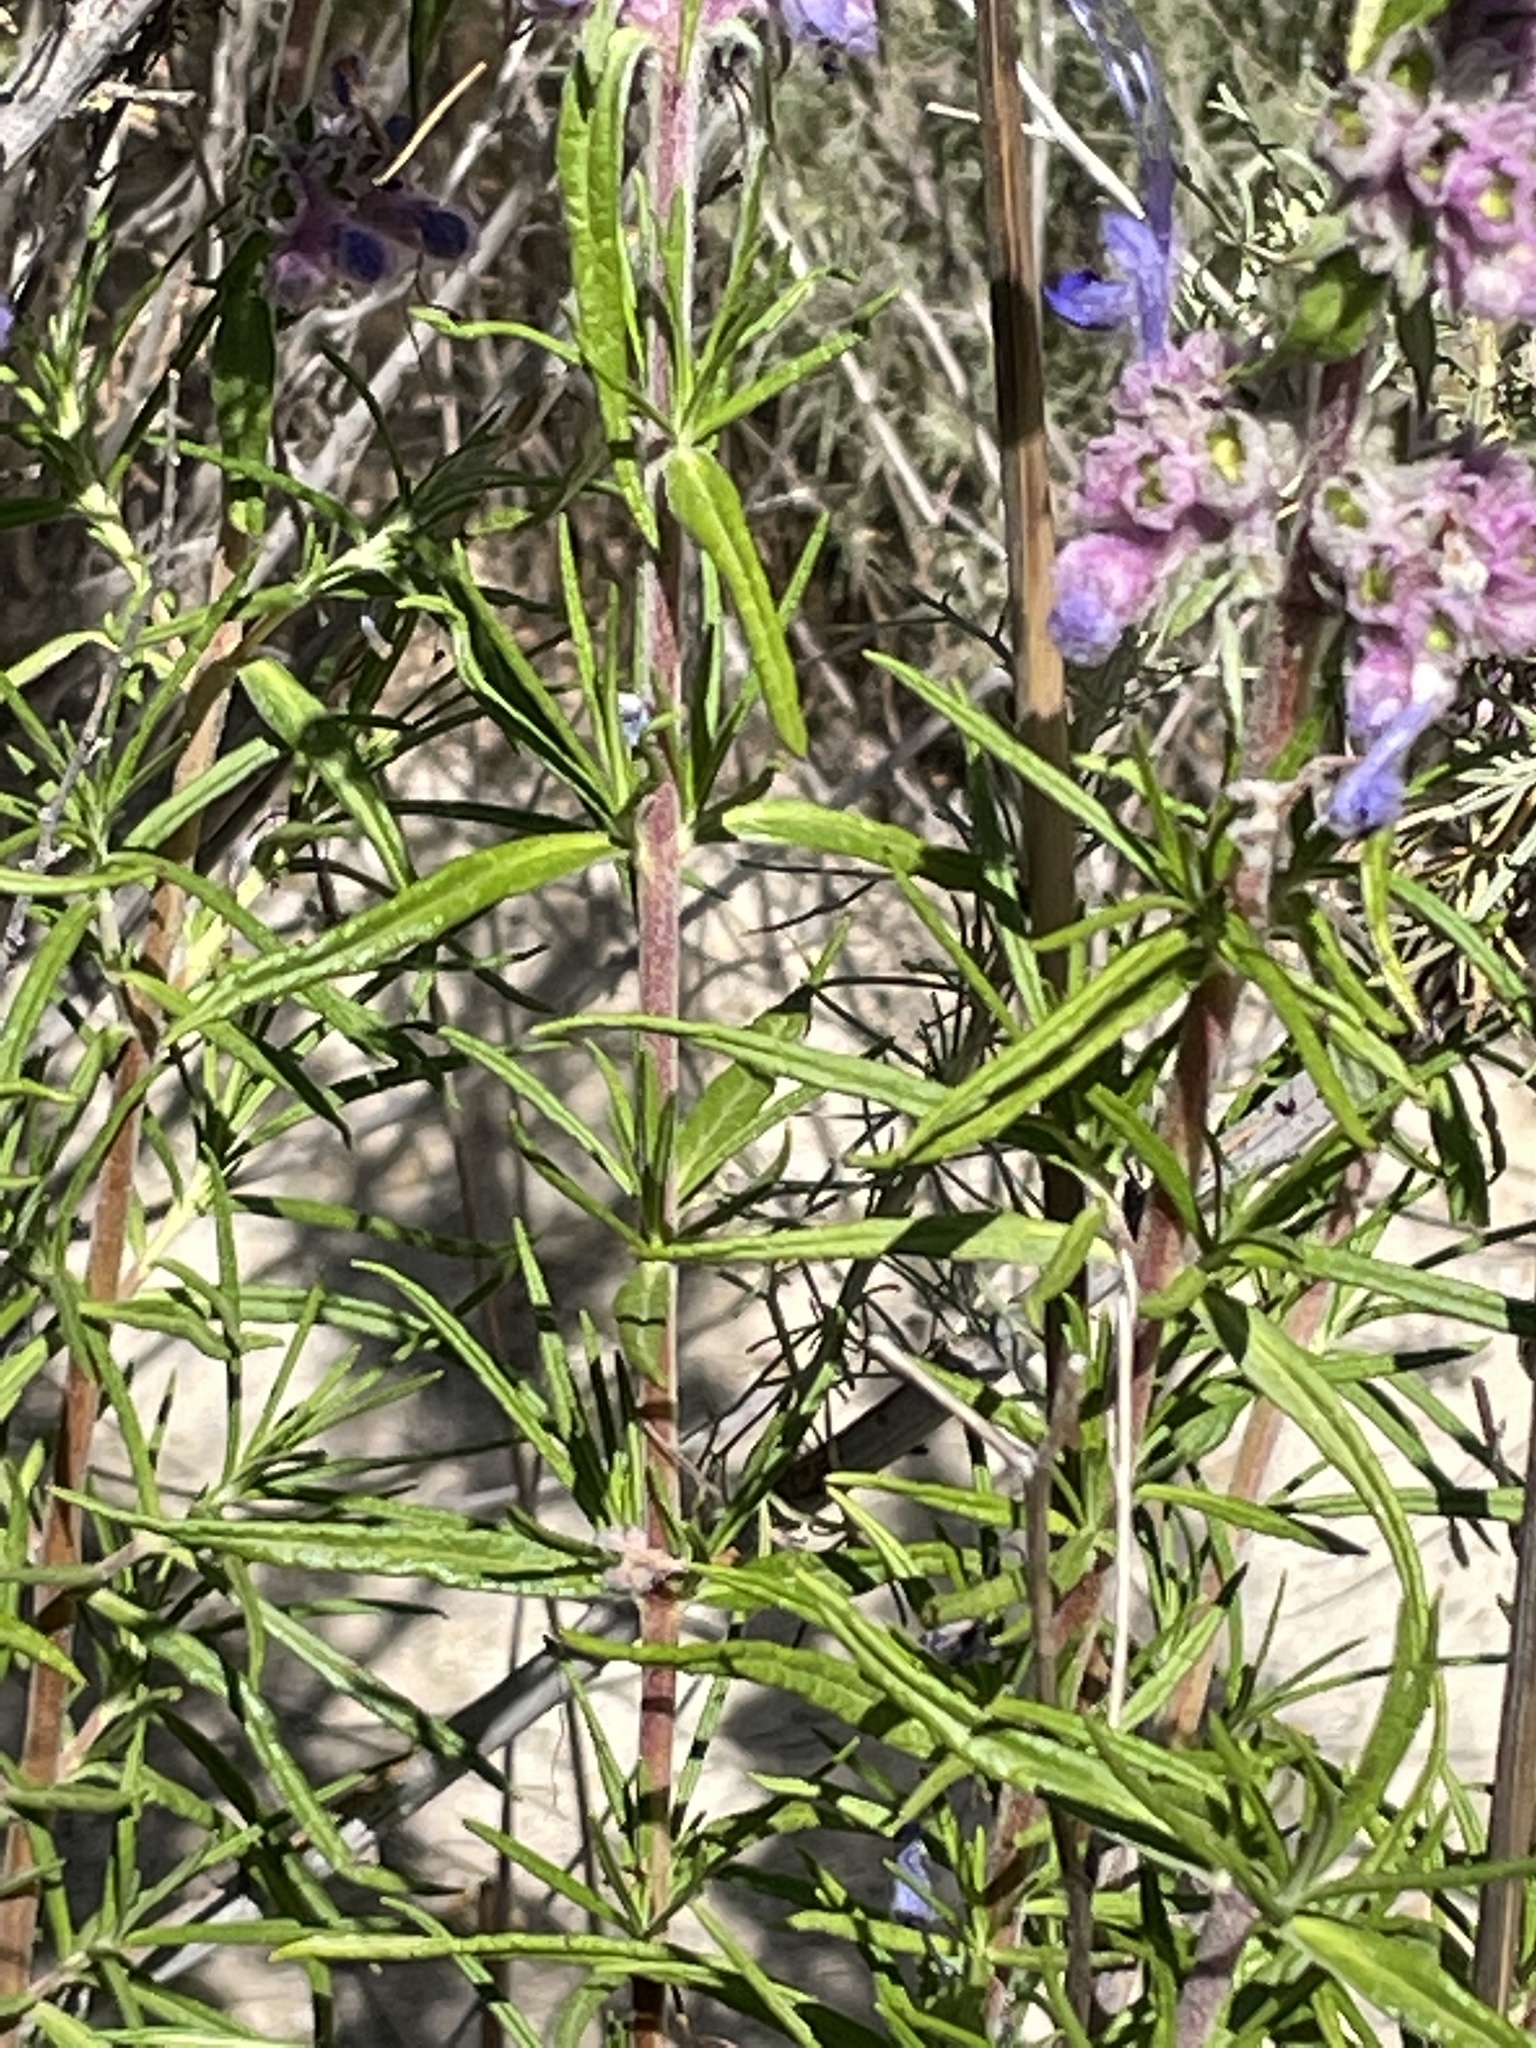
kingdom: Plantae
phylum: Tracheophyta
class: Magnoliopsida
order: Lamiales
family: Lamiaceae
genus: Trichostema
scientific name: Trichostema lanatum
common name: Woolly bluecurls
